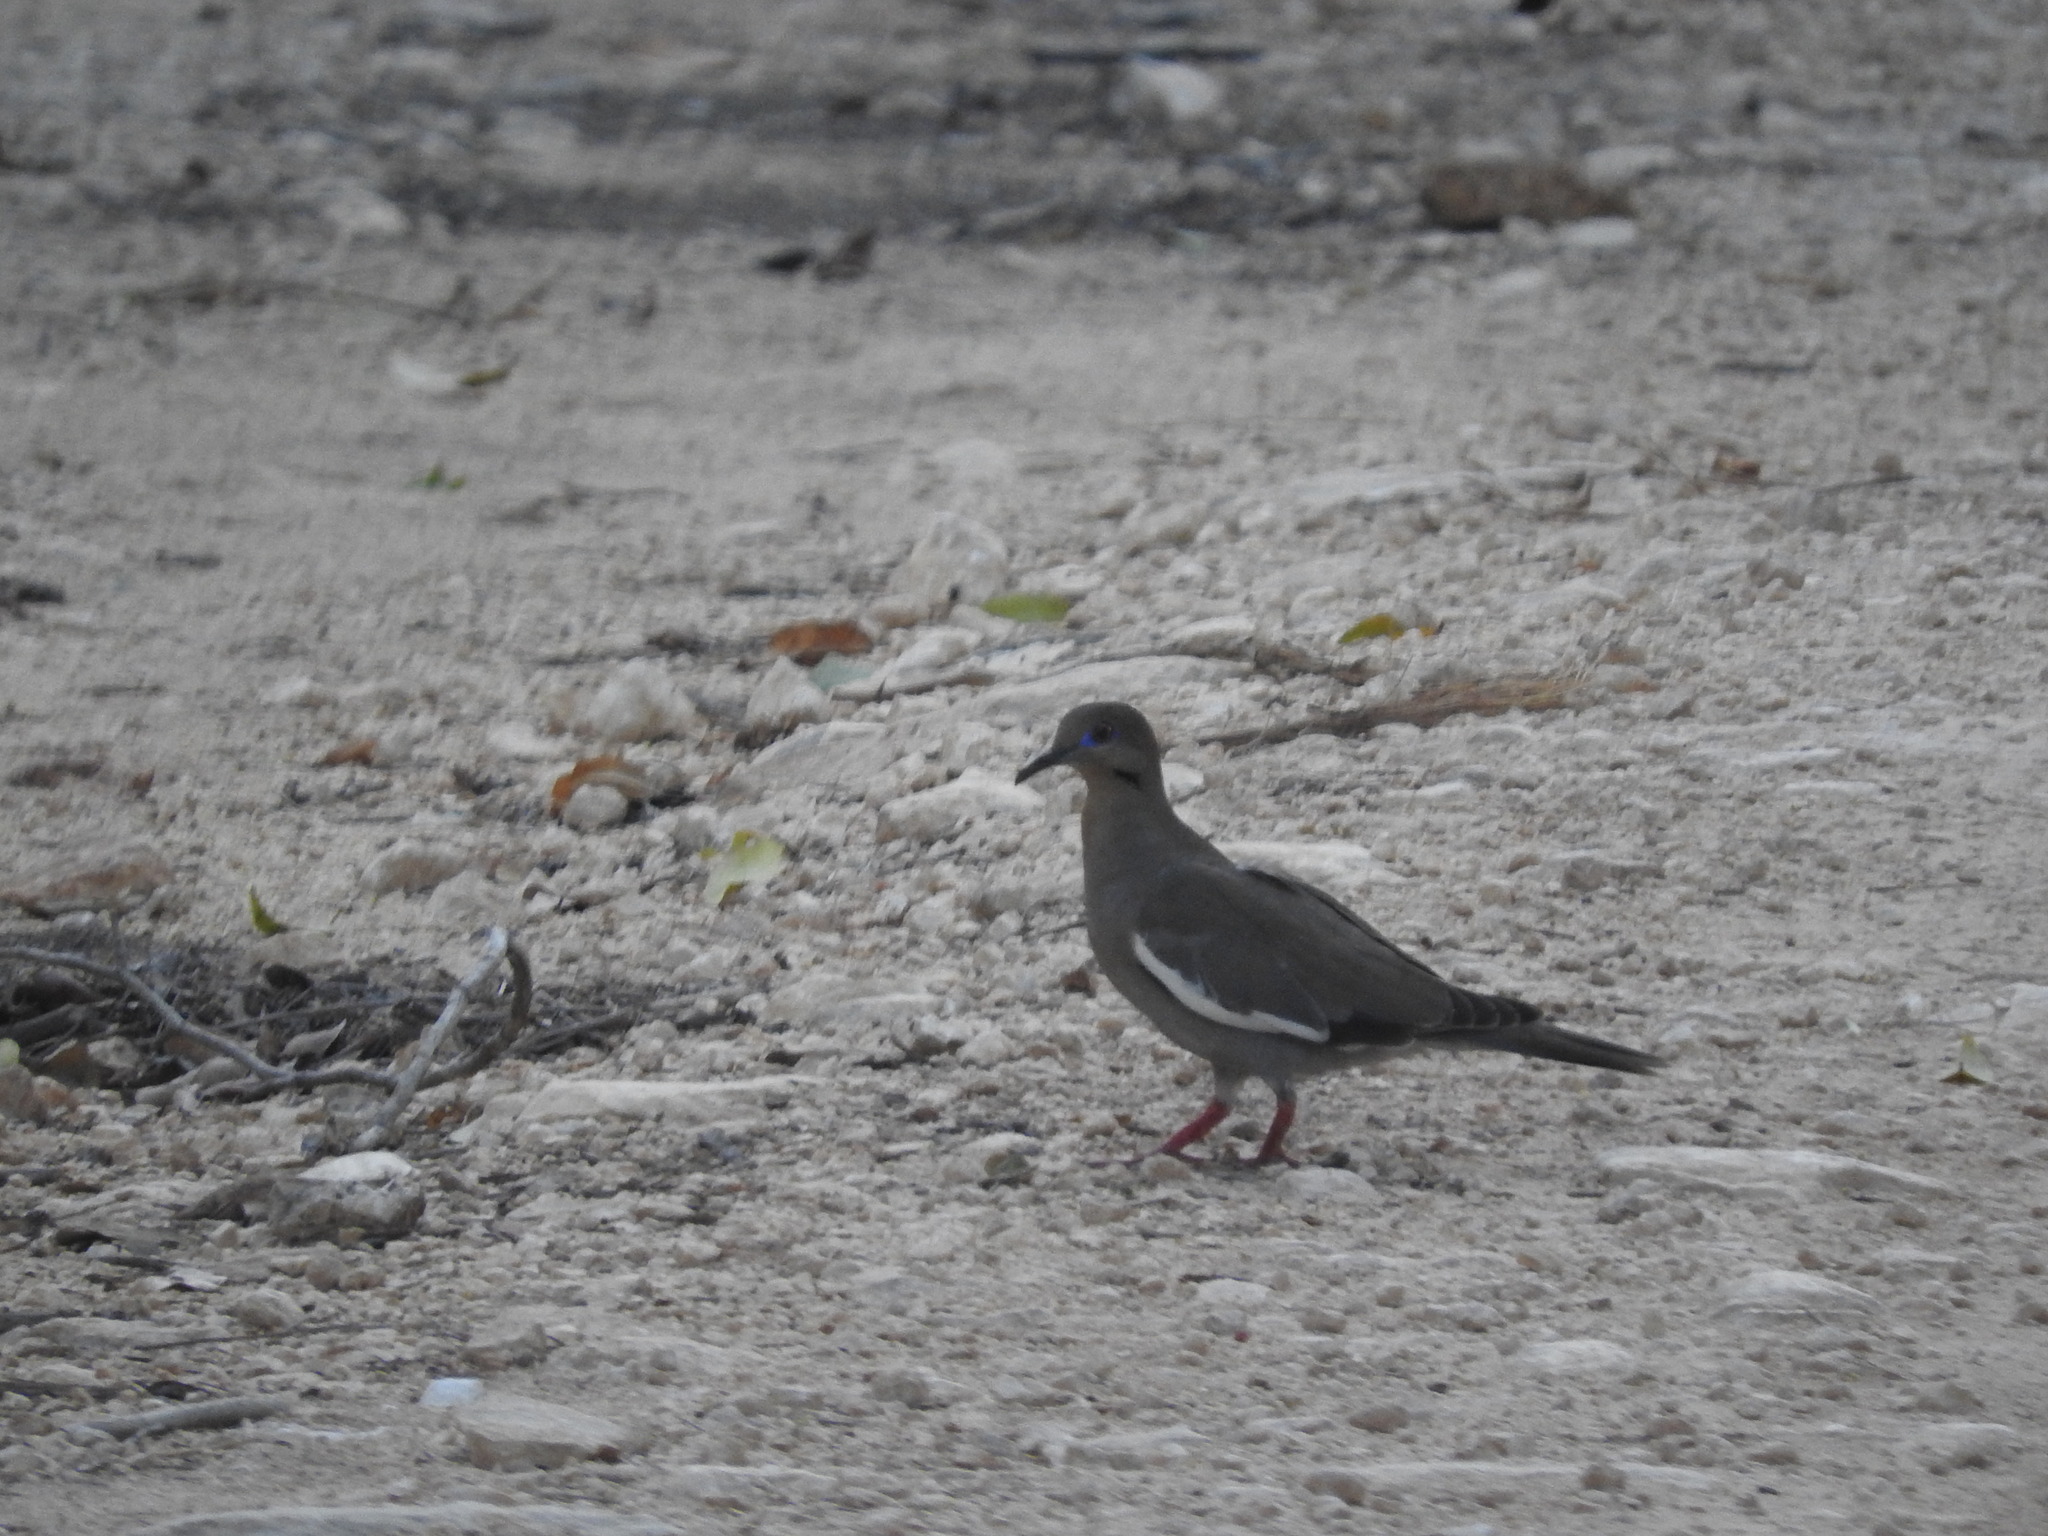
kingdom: Animalia
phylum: Chordata
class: Aves
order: Columbiformes
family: Columbidae
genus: Zenaida
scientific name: Zenaida asiatica
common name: White-winged dove
